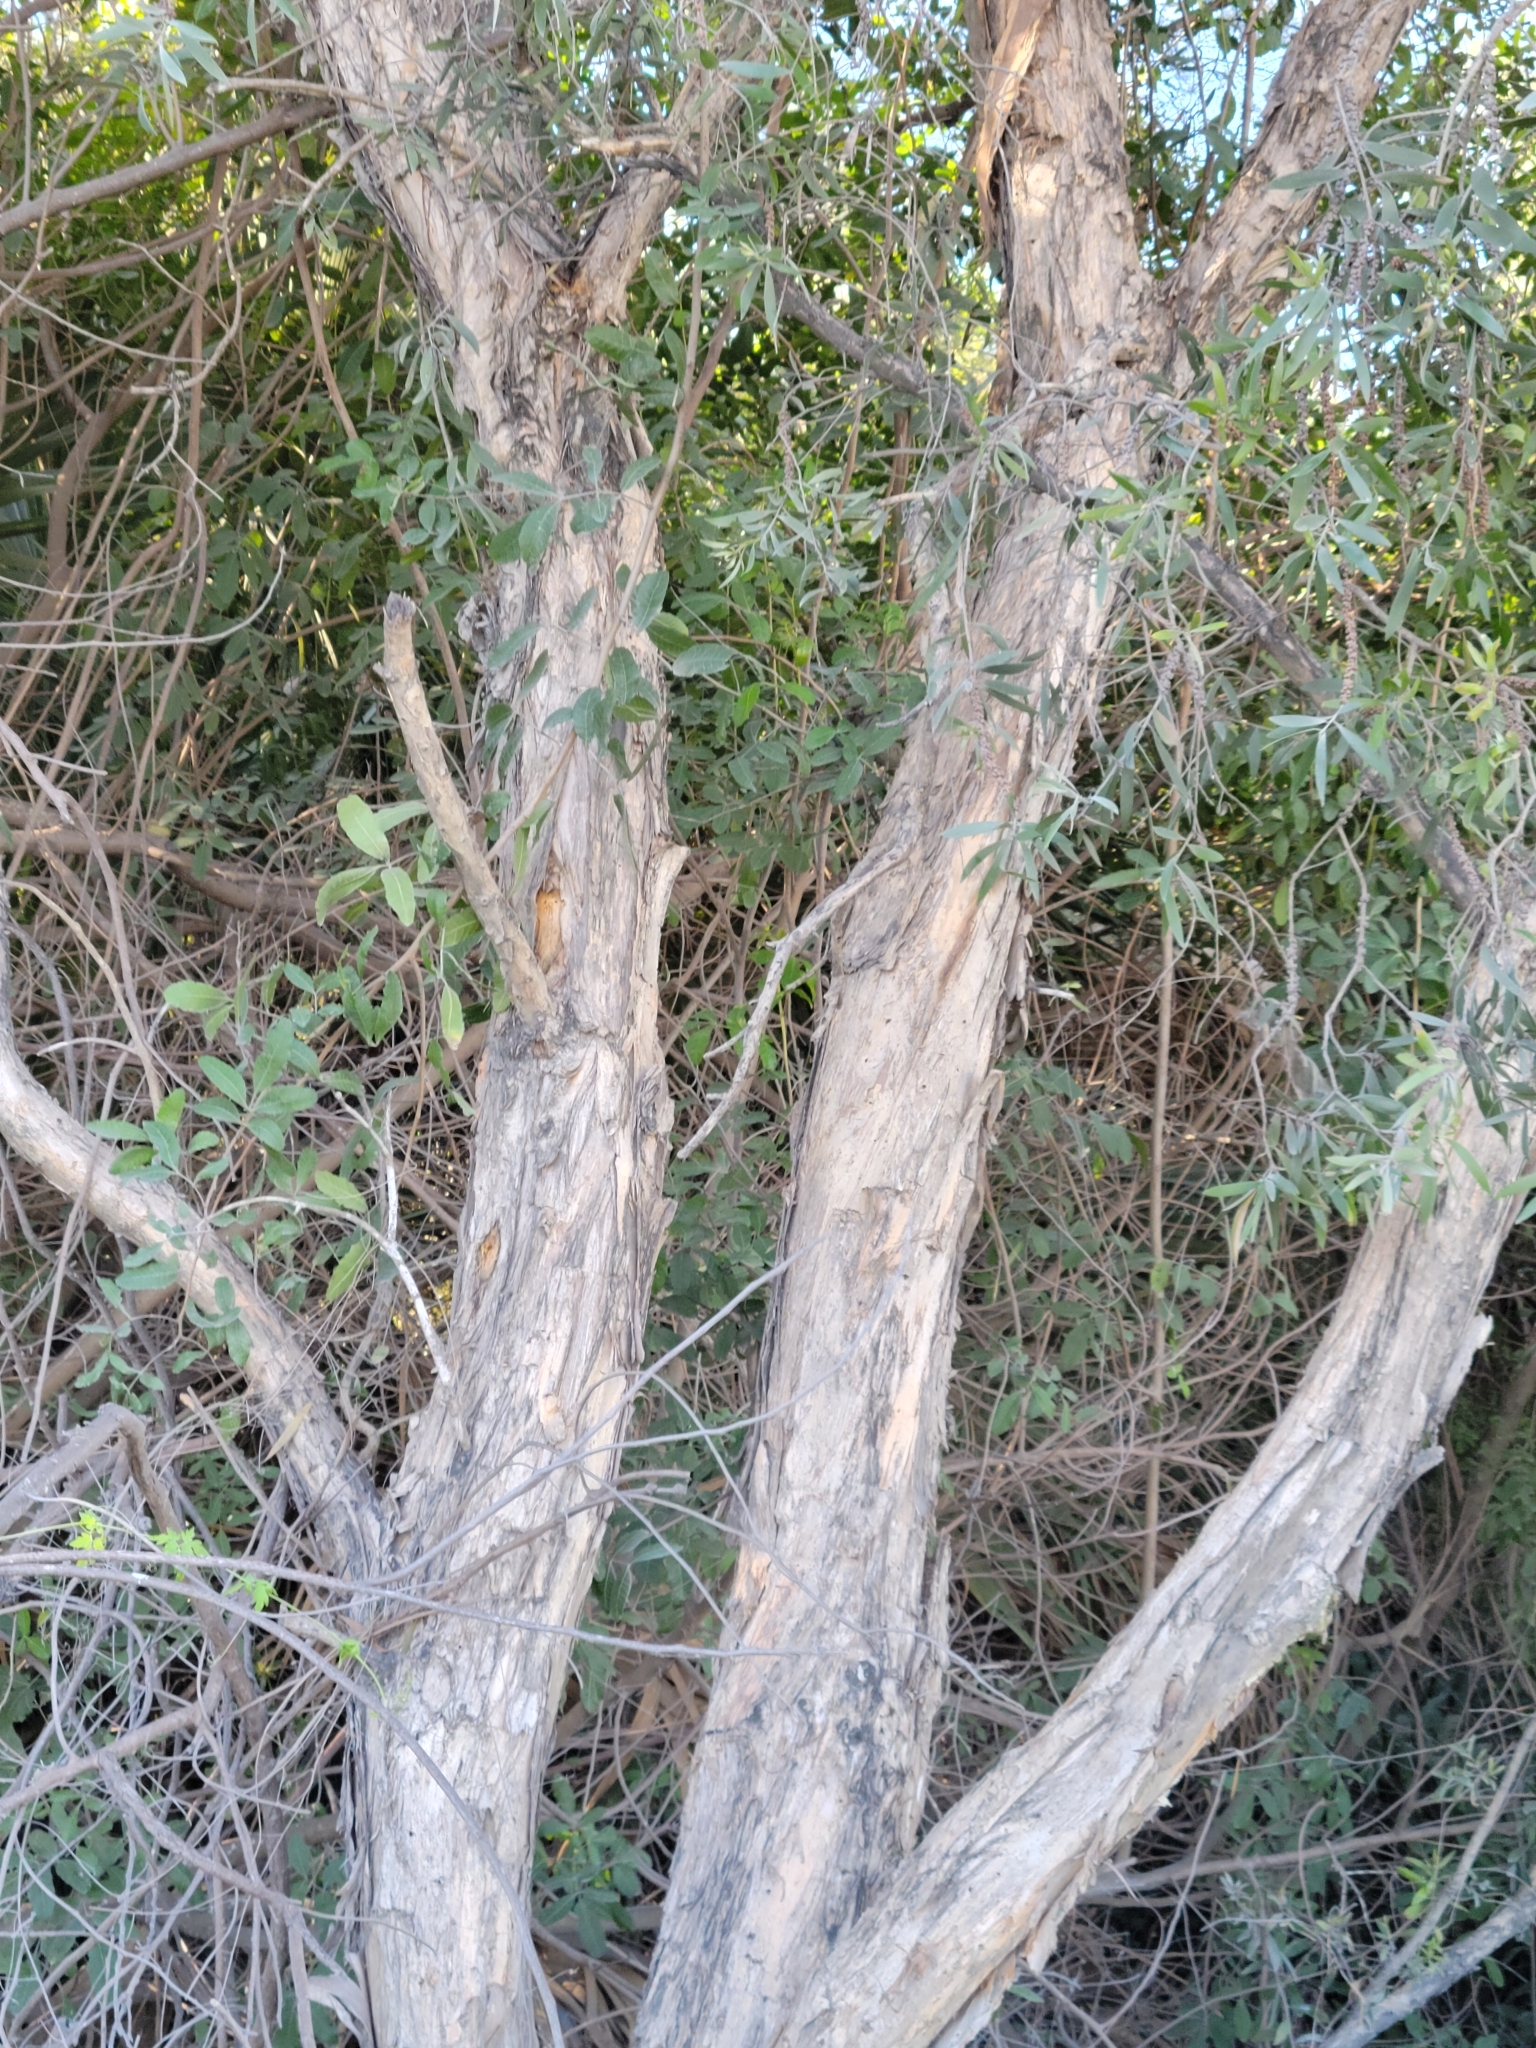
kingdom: Plantae
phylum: Tracheophyta
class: Magnoliopsida
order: Myrtales
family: Myrtaceae
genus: Melaleuca
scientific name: Melaleuca quinquenervia
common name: Punktree
